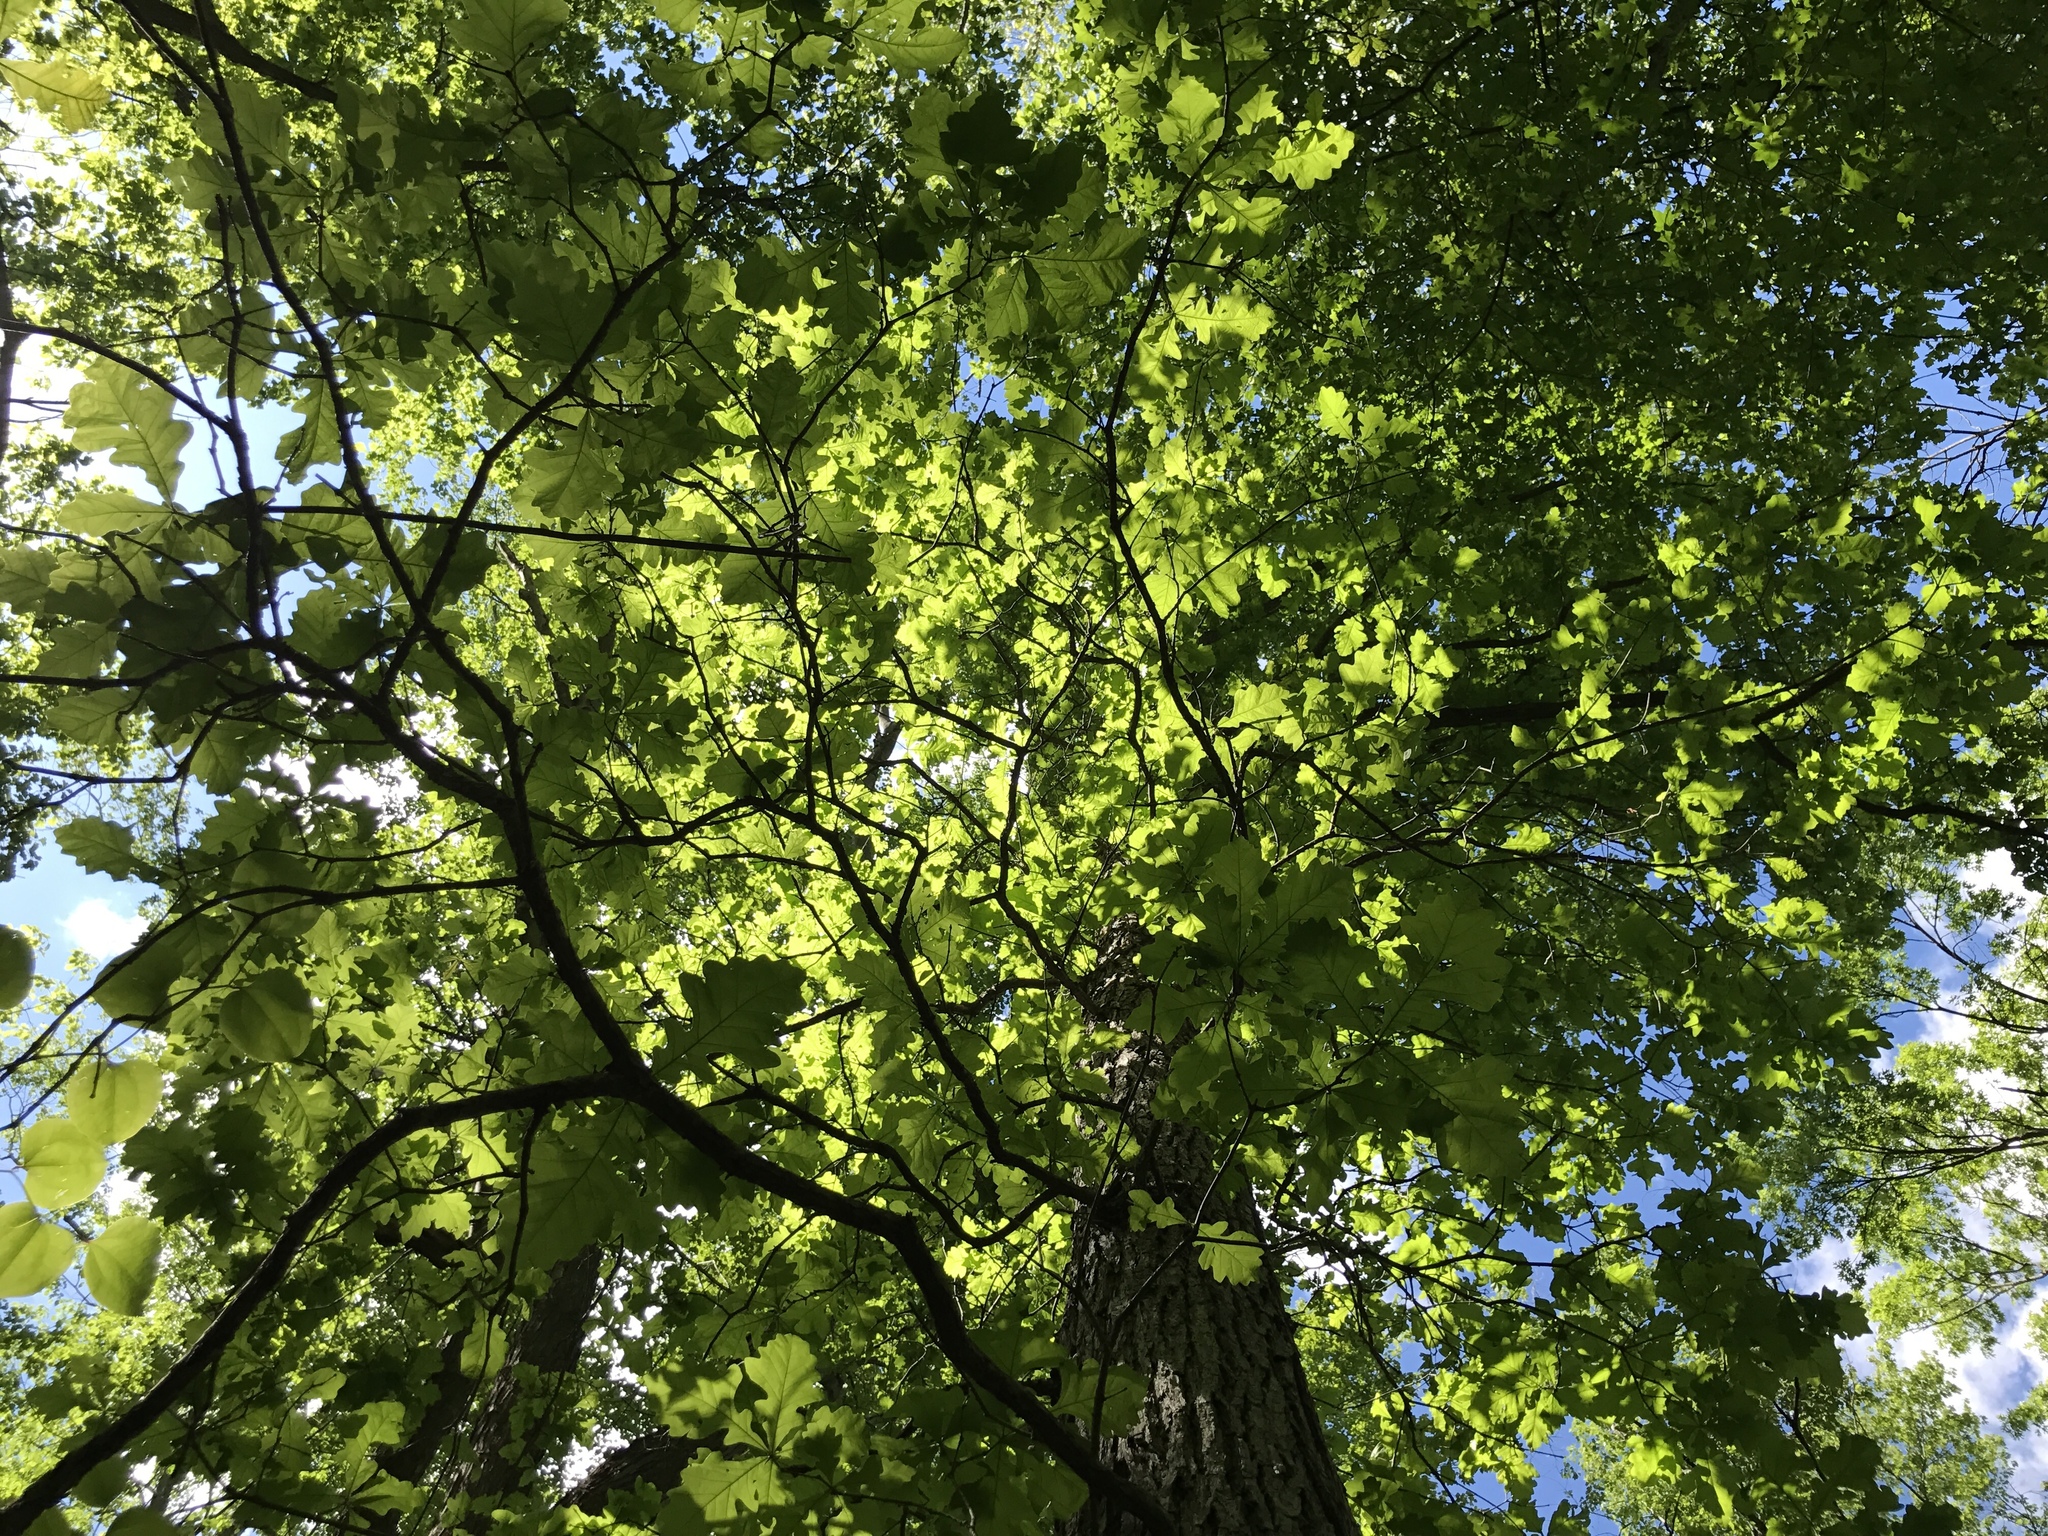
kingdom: Plantae
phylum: Tracheophyta
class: Magnoliopsida
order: Fagales
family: Fagaceae
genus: Quercus
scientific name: Quercus macrocarpa
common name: Bur oak
